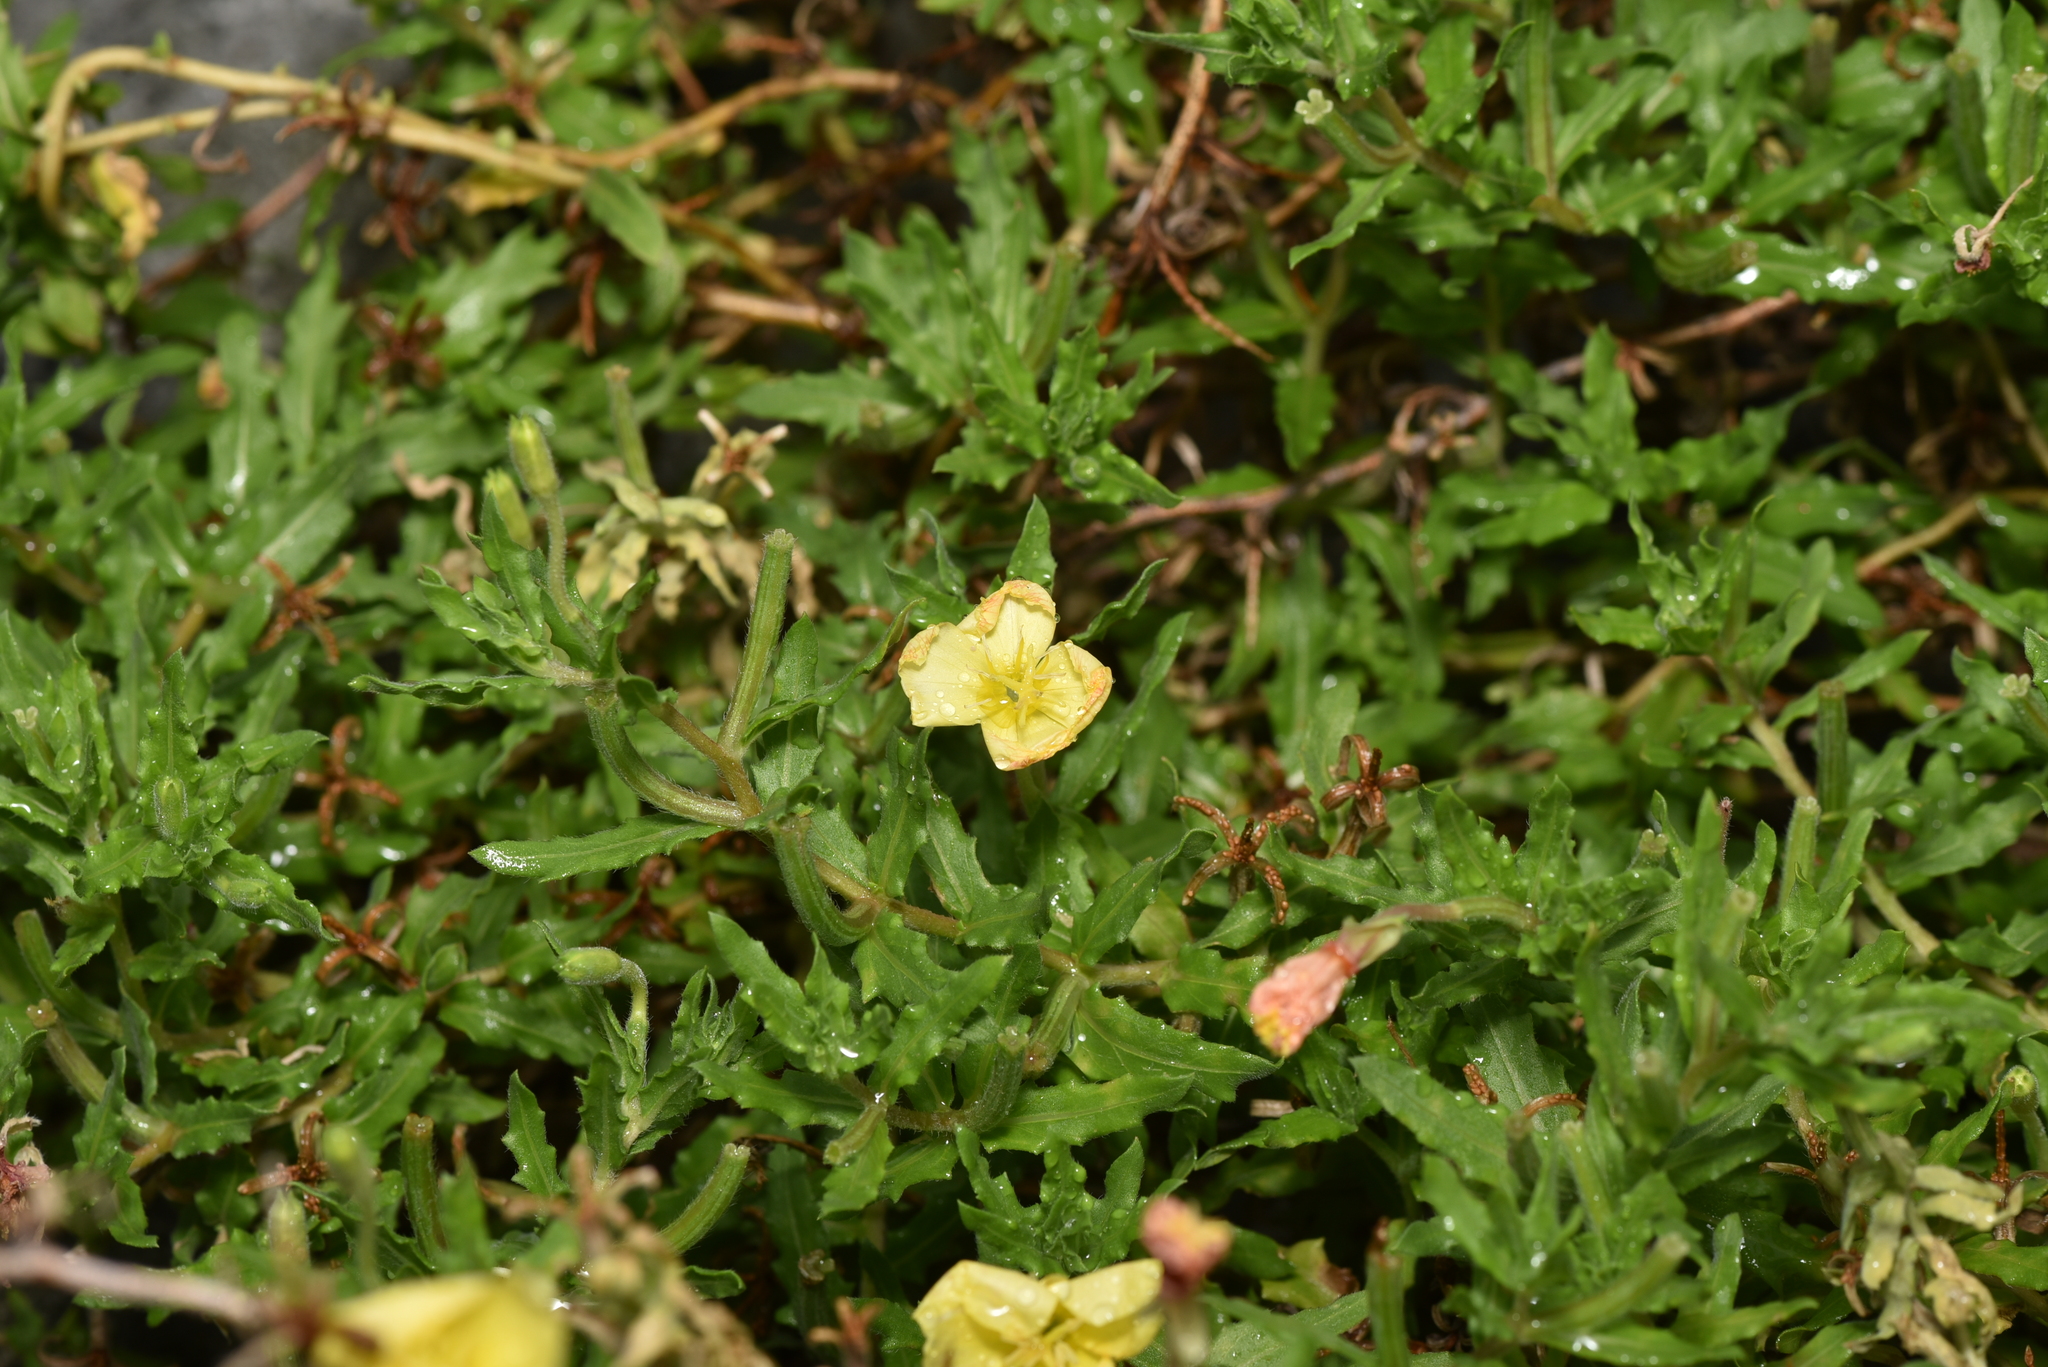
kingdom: Plantae
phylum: Tracheophyta
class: Magnoliopsida
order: Myrtales
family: Onagraceae
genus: Oenothera
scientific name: Oenothera laciniata
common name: Cut-leaved evening-primrose
